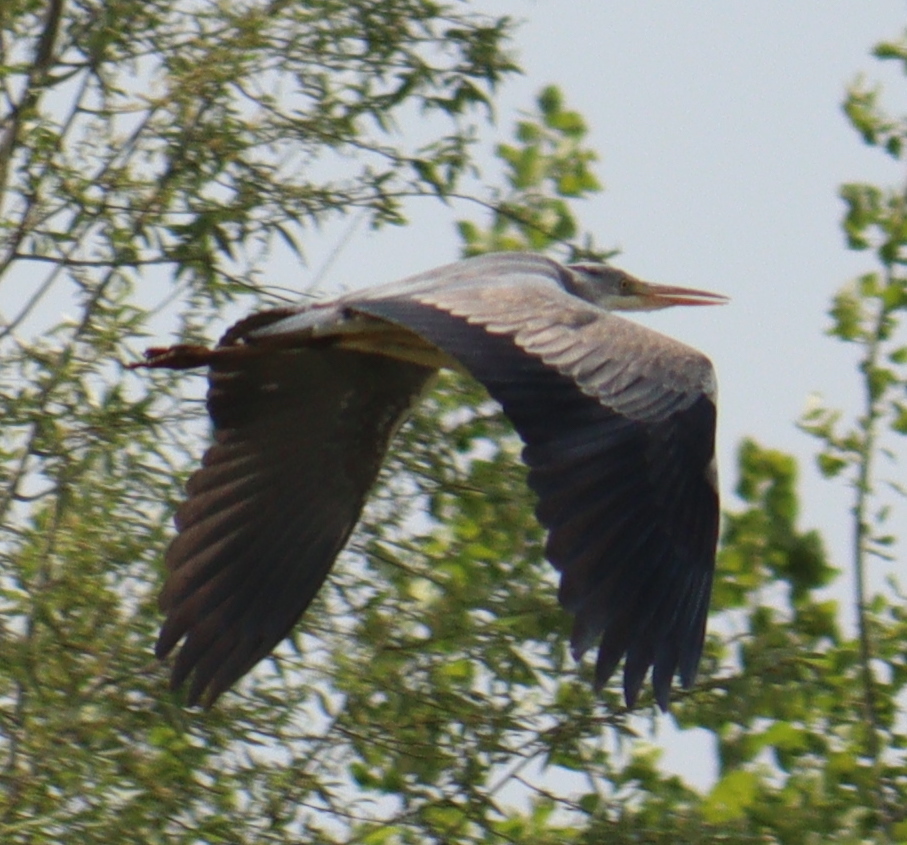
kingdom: Animalia
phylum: Chordata
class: Aves
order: Pelecaniformes
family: Ardeidae
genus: Ardea
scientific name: Ardea cinerea
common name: Grey heron
